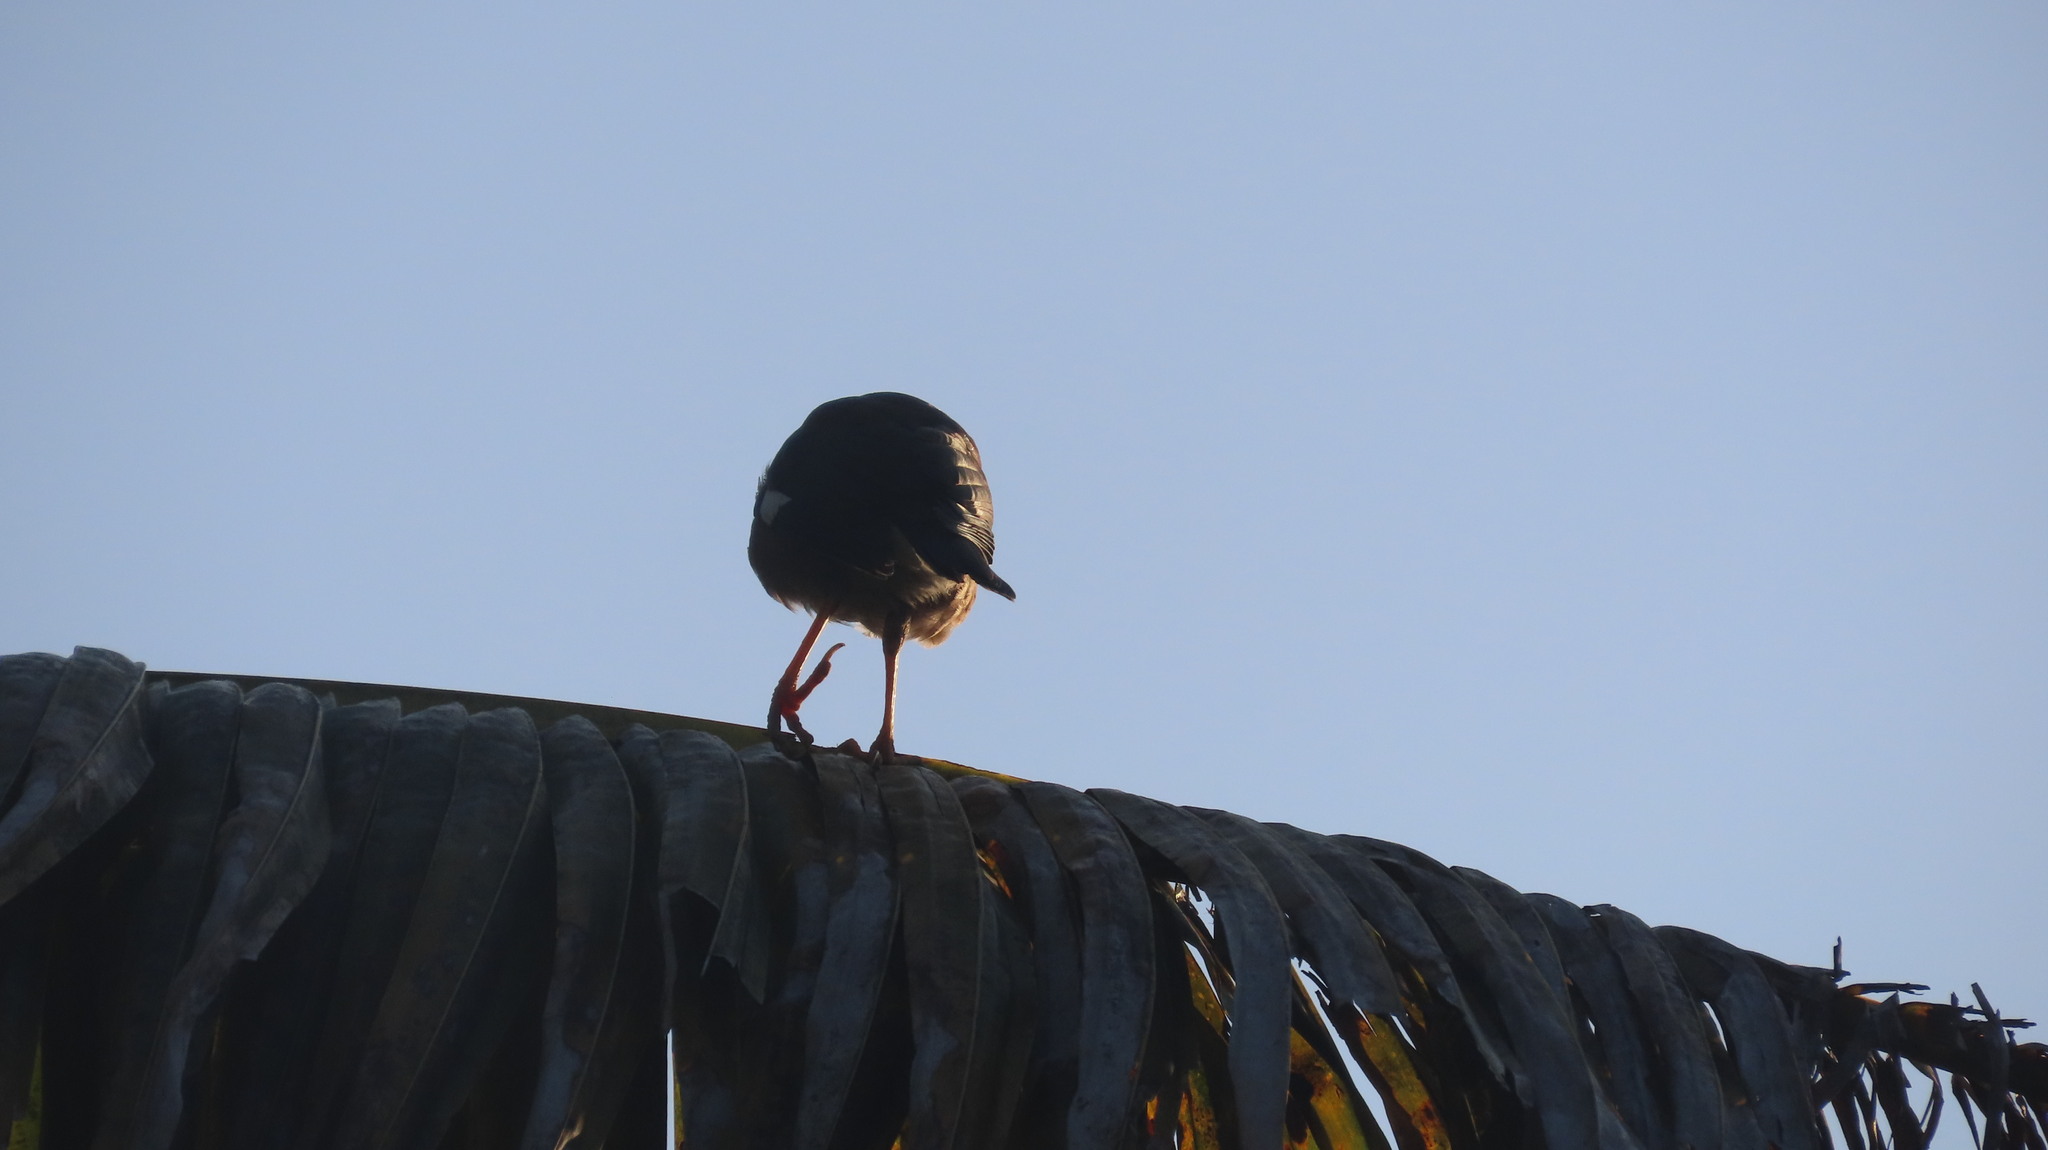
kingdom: Animalia
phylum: Chordata
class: Aves
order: Passeriformes
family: Sturnidae
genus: Acridotheres
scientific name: Acridotheres tristis
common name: Common myna
